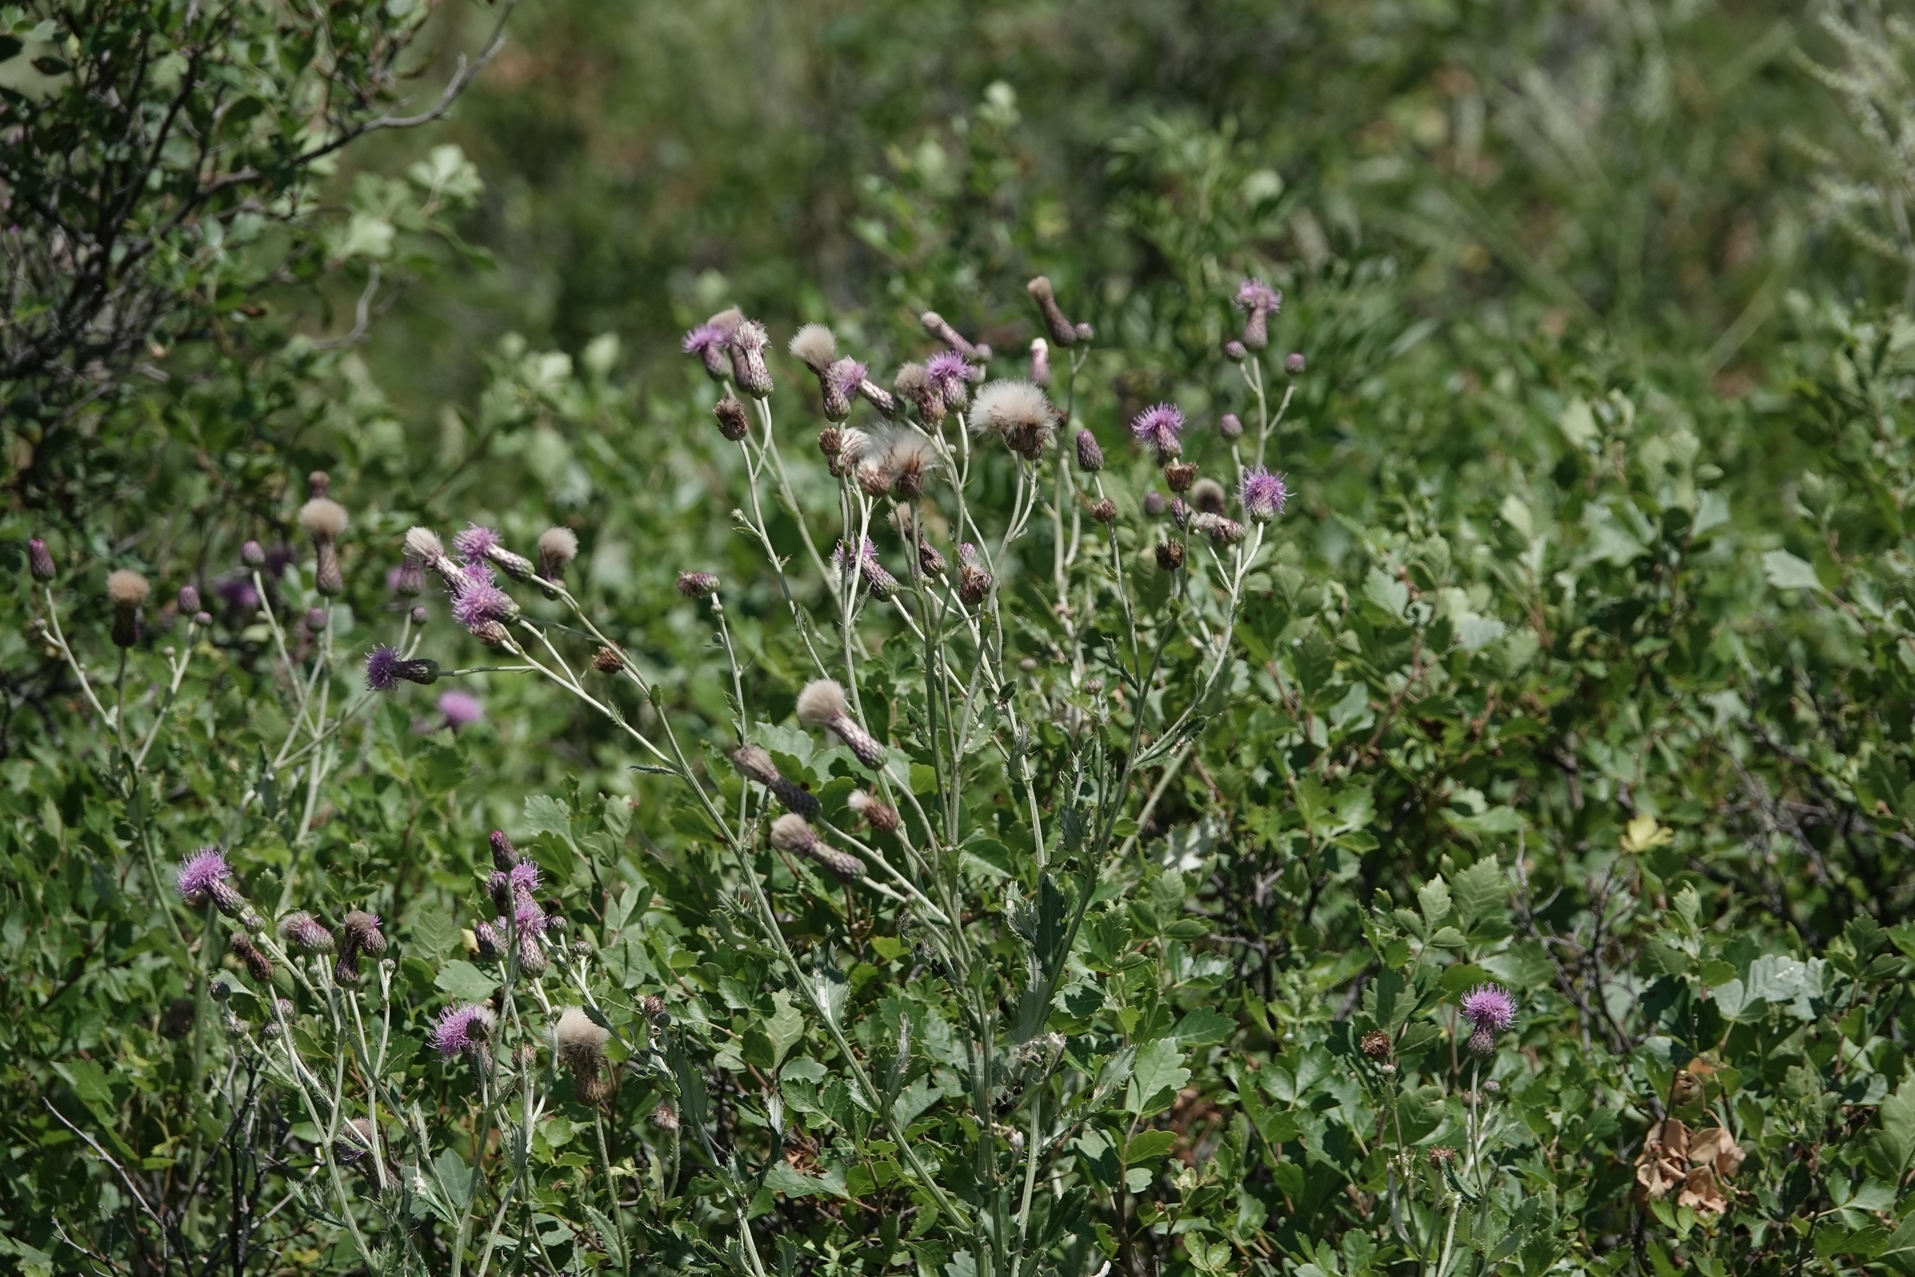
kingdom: Plantae
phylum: Tracheophyta
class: Magnoliopsida
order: Asterales
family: Asteraceae
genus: Cirsium
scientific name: Cirsium arvense
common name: Creeping thistle
